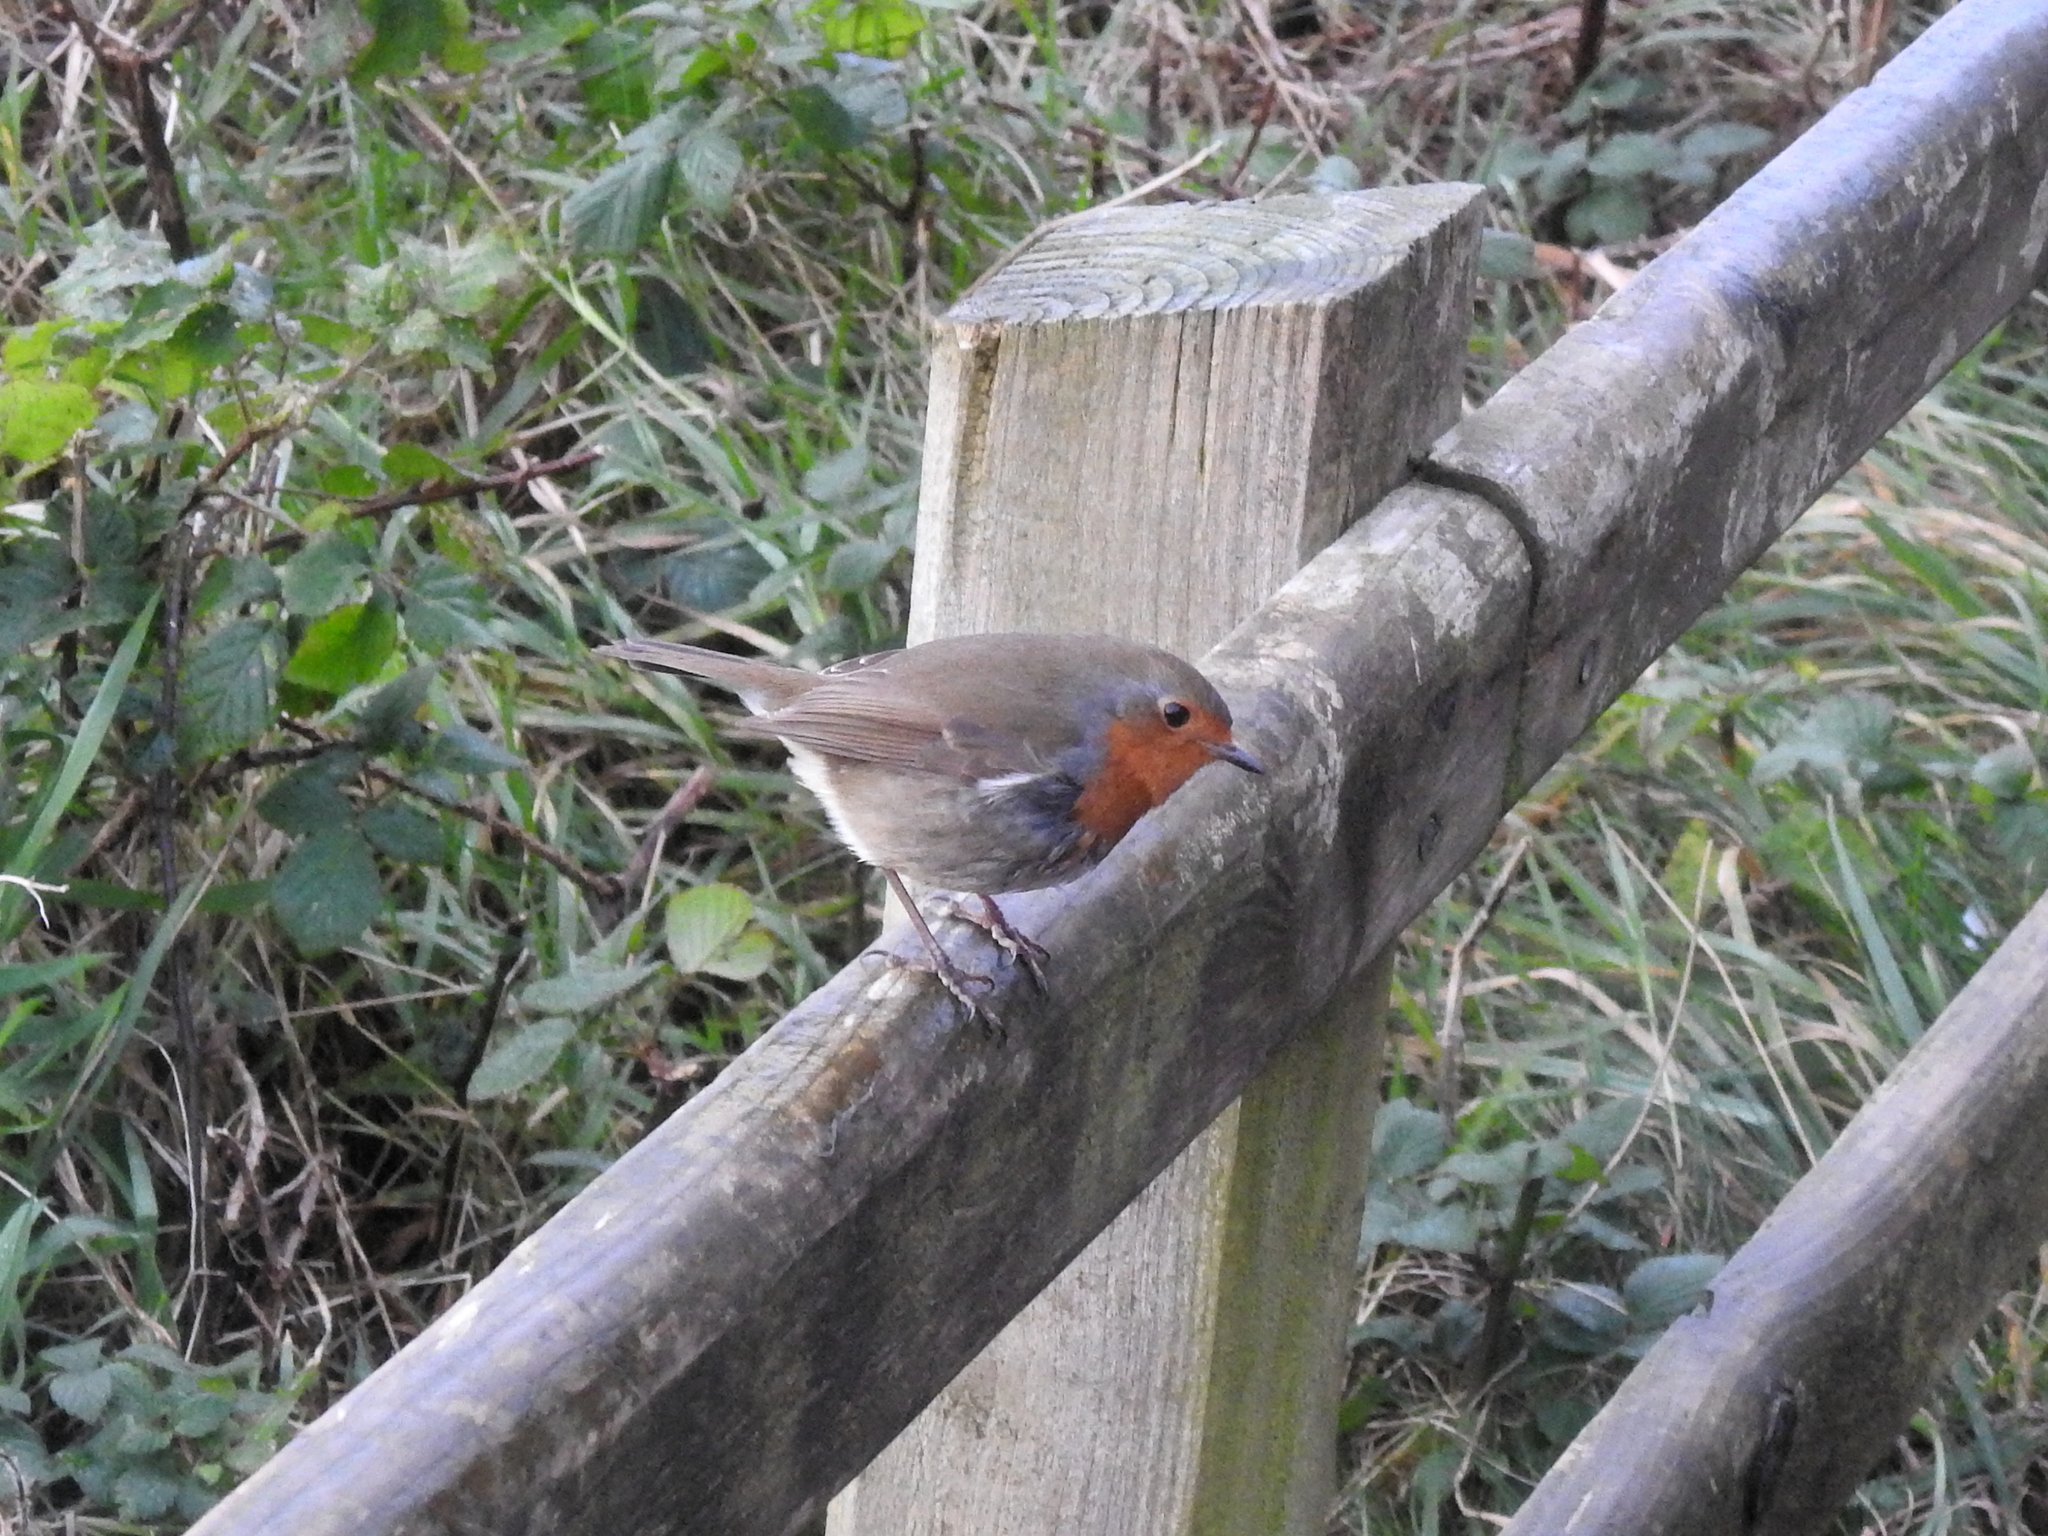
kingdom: Animalia
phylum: Chordata
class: Aves
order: Passeriformes
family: Muscicapidae
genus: Erithacus
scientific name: Erithacus rubecula
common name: European robin
